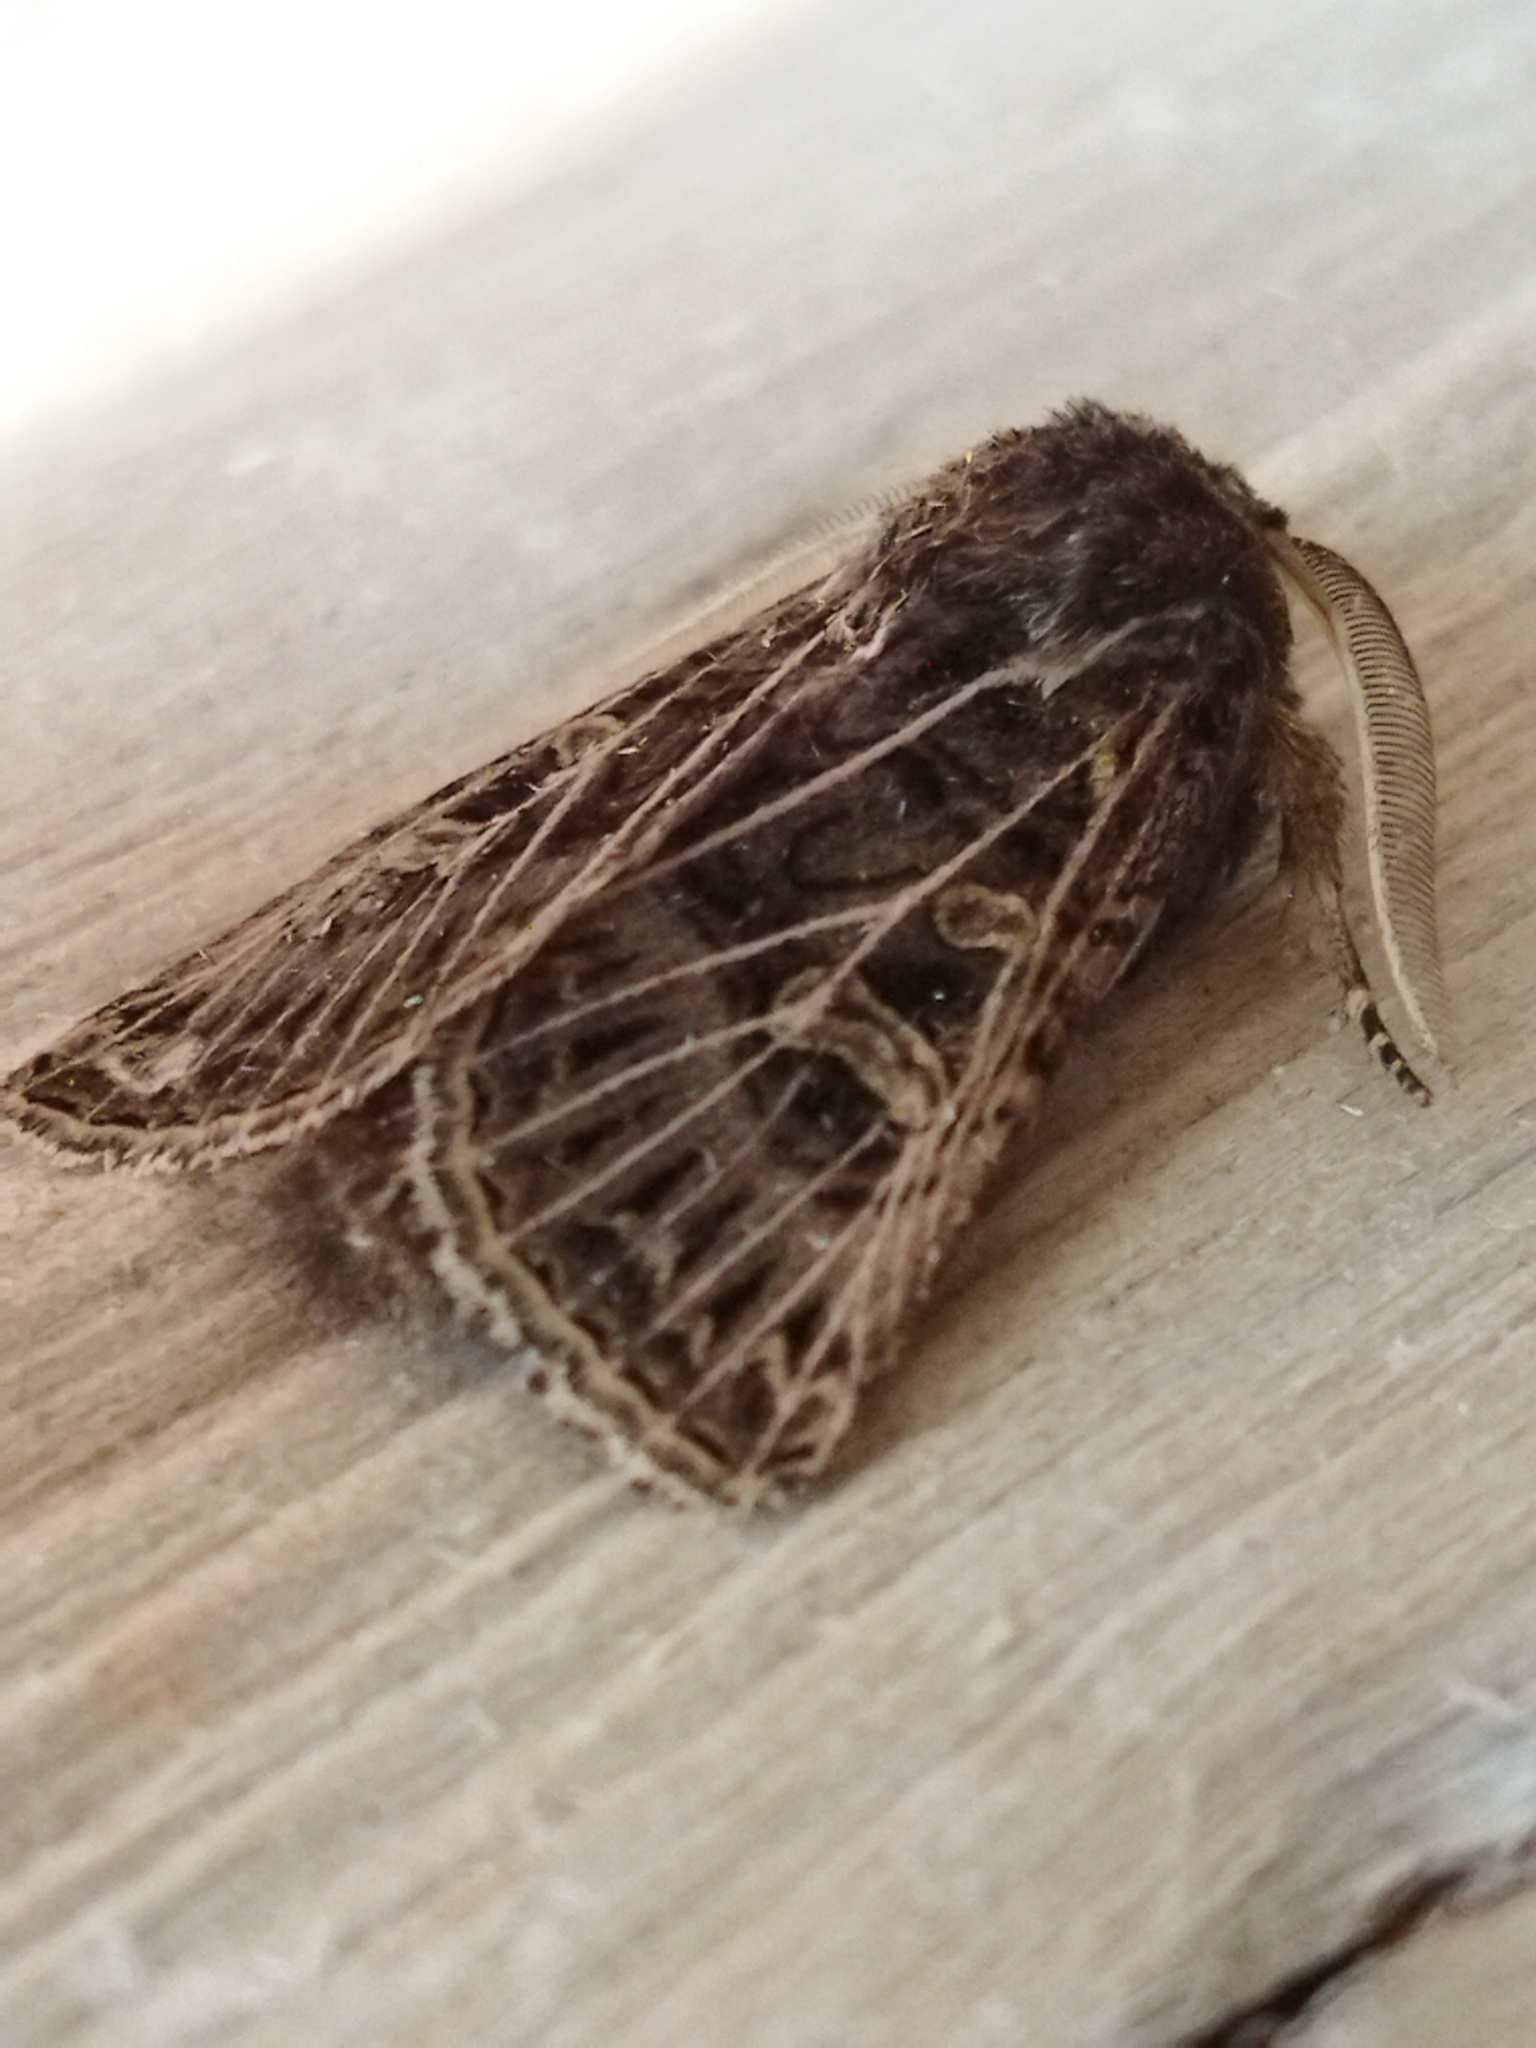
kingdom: Animalia
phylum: Arthropoda
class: Insecta
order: Lepidoptera
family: Noctuidae
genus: Tholera
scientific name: Tholera decimalis
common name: Feathered gothic
